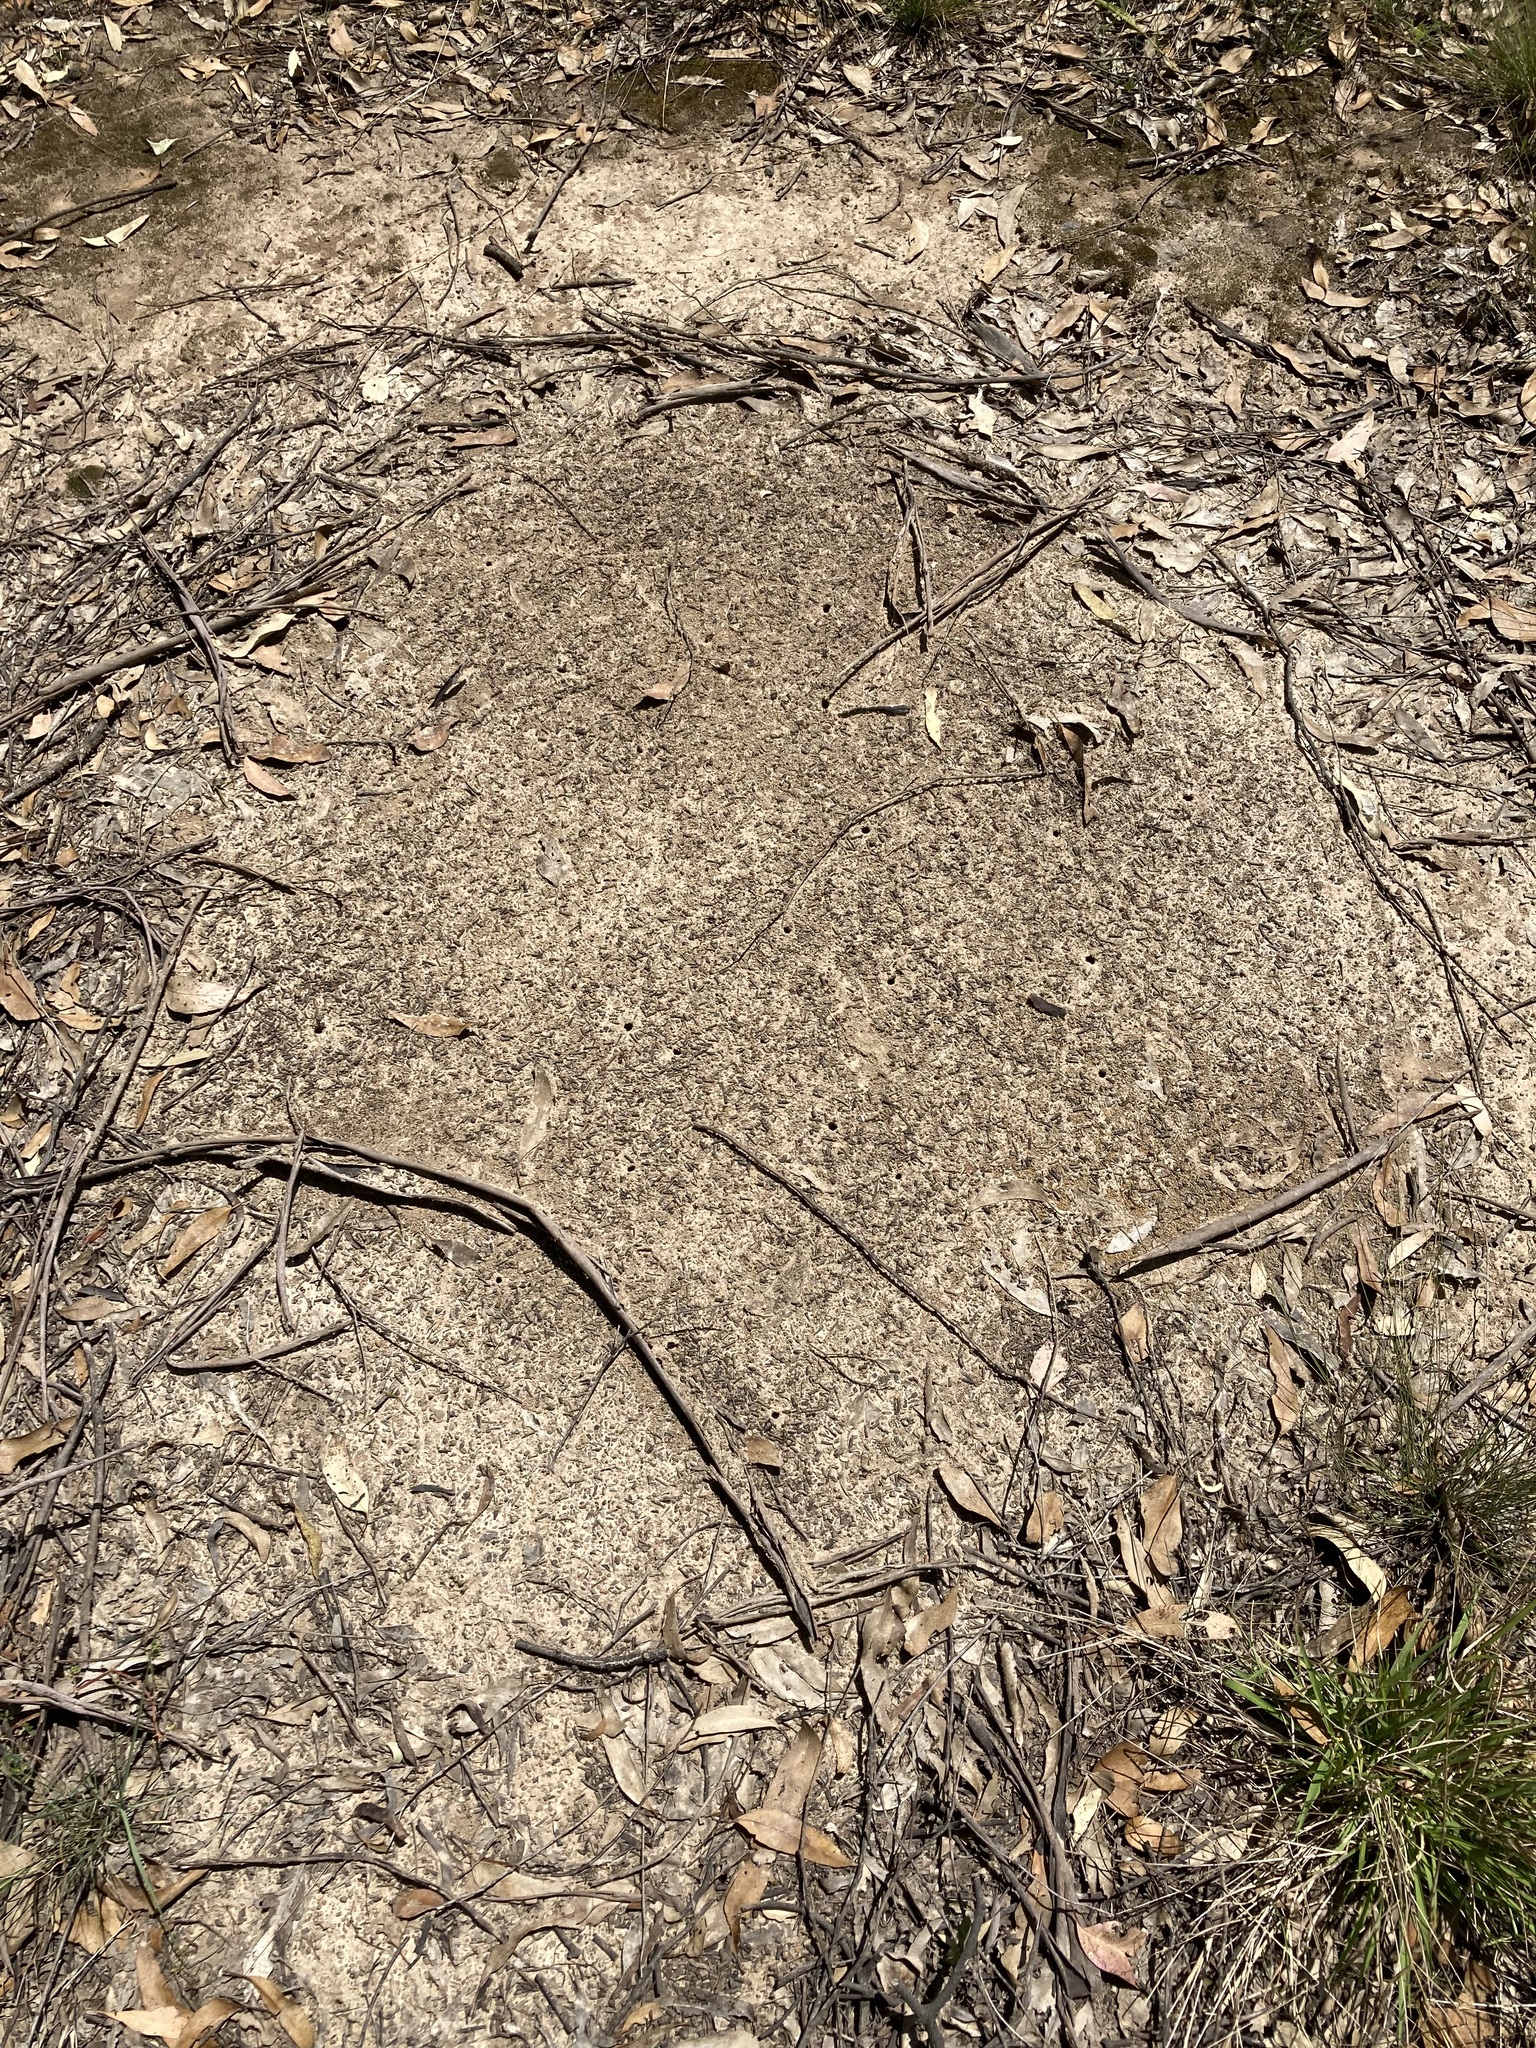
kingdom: Animalia
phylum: Arthropoda
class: Insecta
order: Hymenoptera
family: Formicidae
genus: Iridomyrmex
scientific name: Iridomyrmex purpureus
